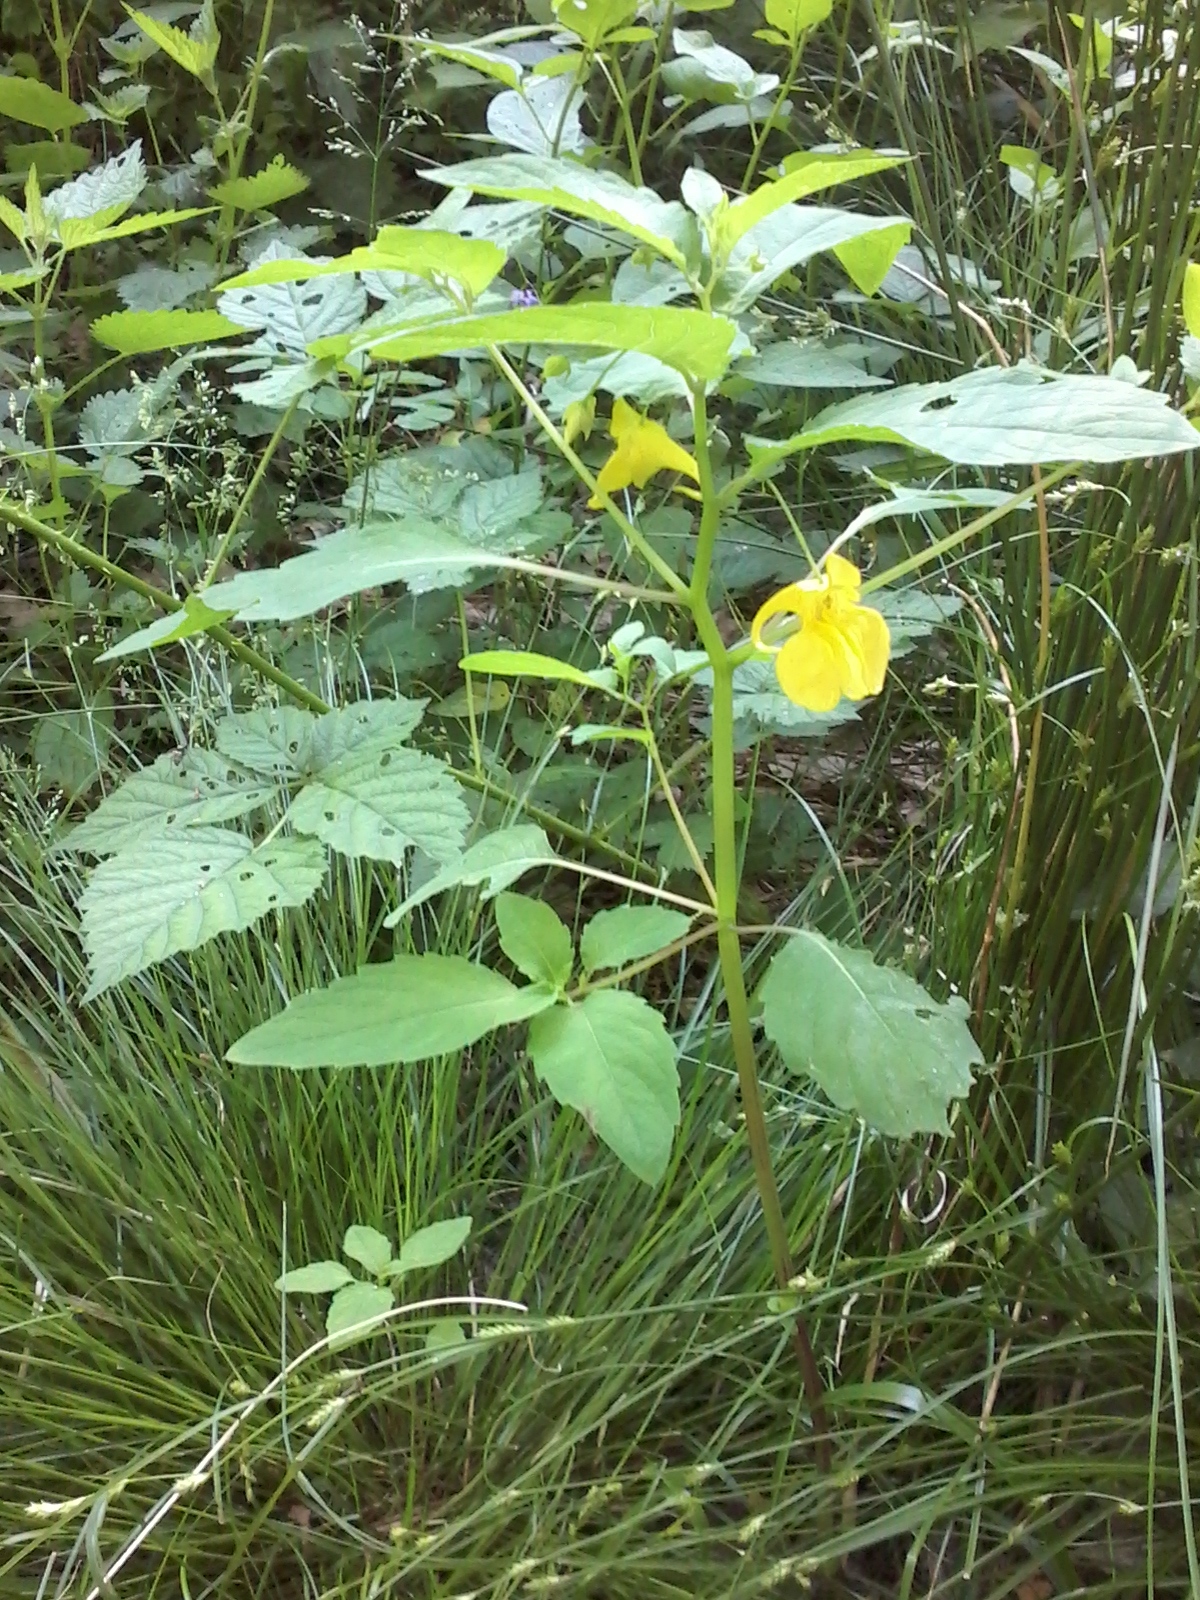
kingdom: Plantae
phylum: Tracheophyta
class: Magnoliopsida
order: Ericales
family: Balsaminaceae
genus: Impatiens
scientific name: Impatiens noli-tangere
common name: Touch-me-not balsam
